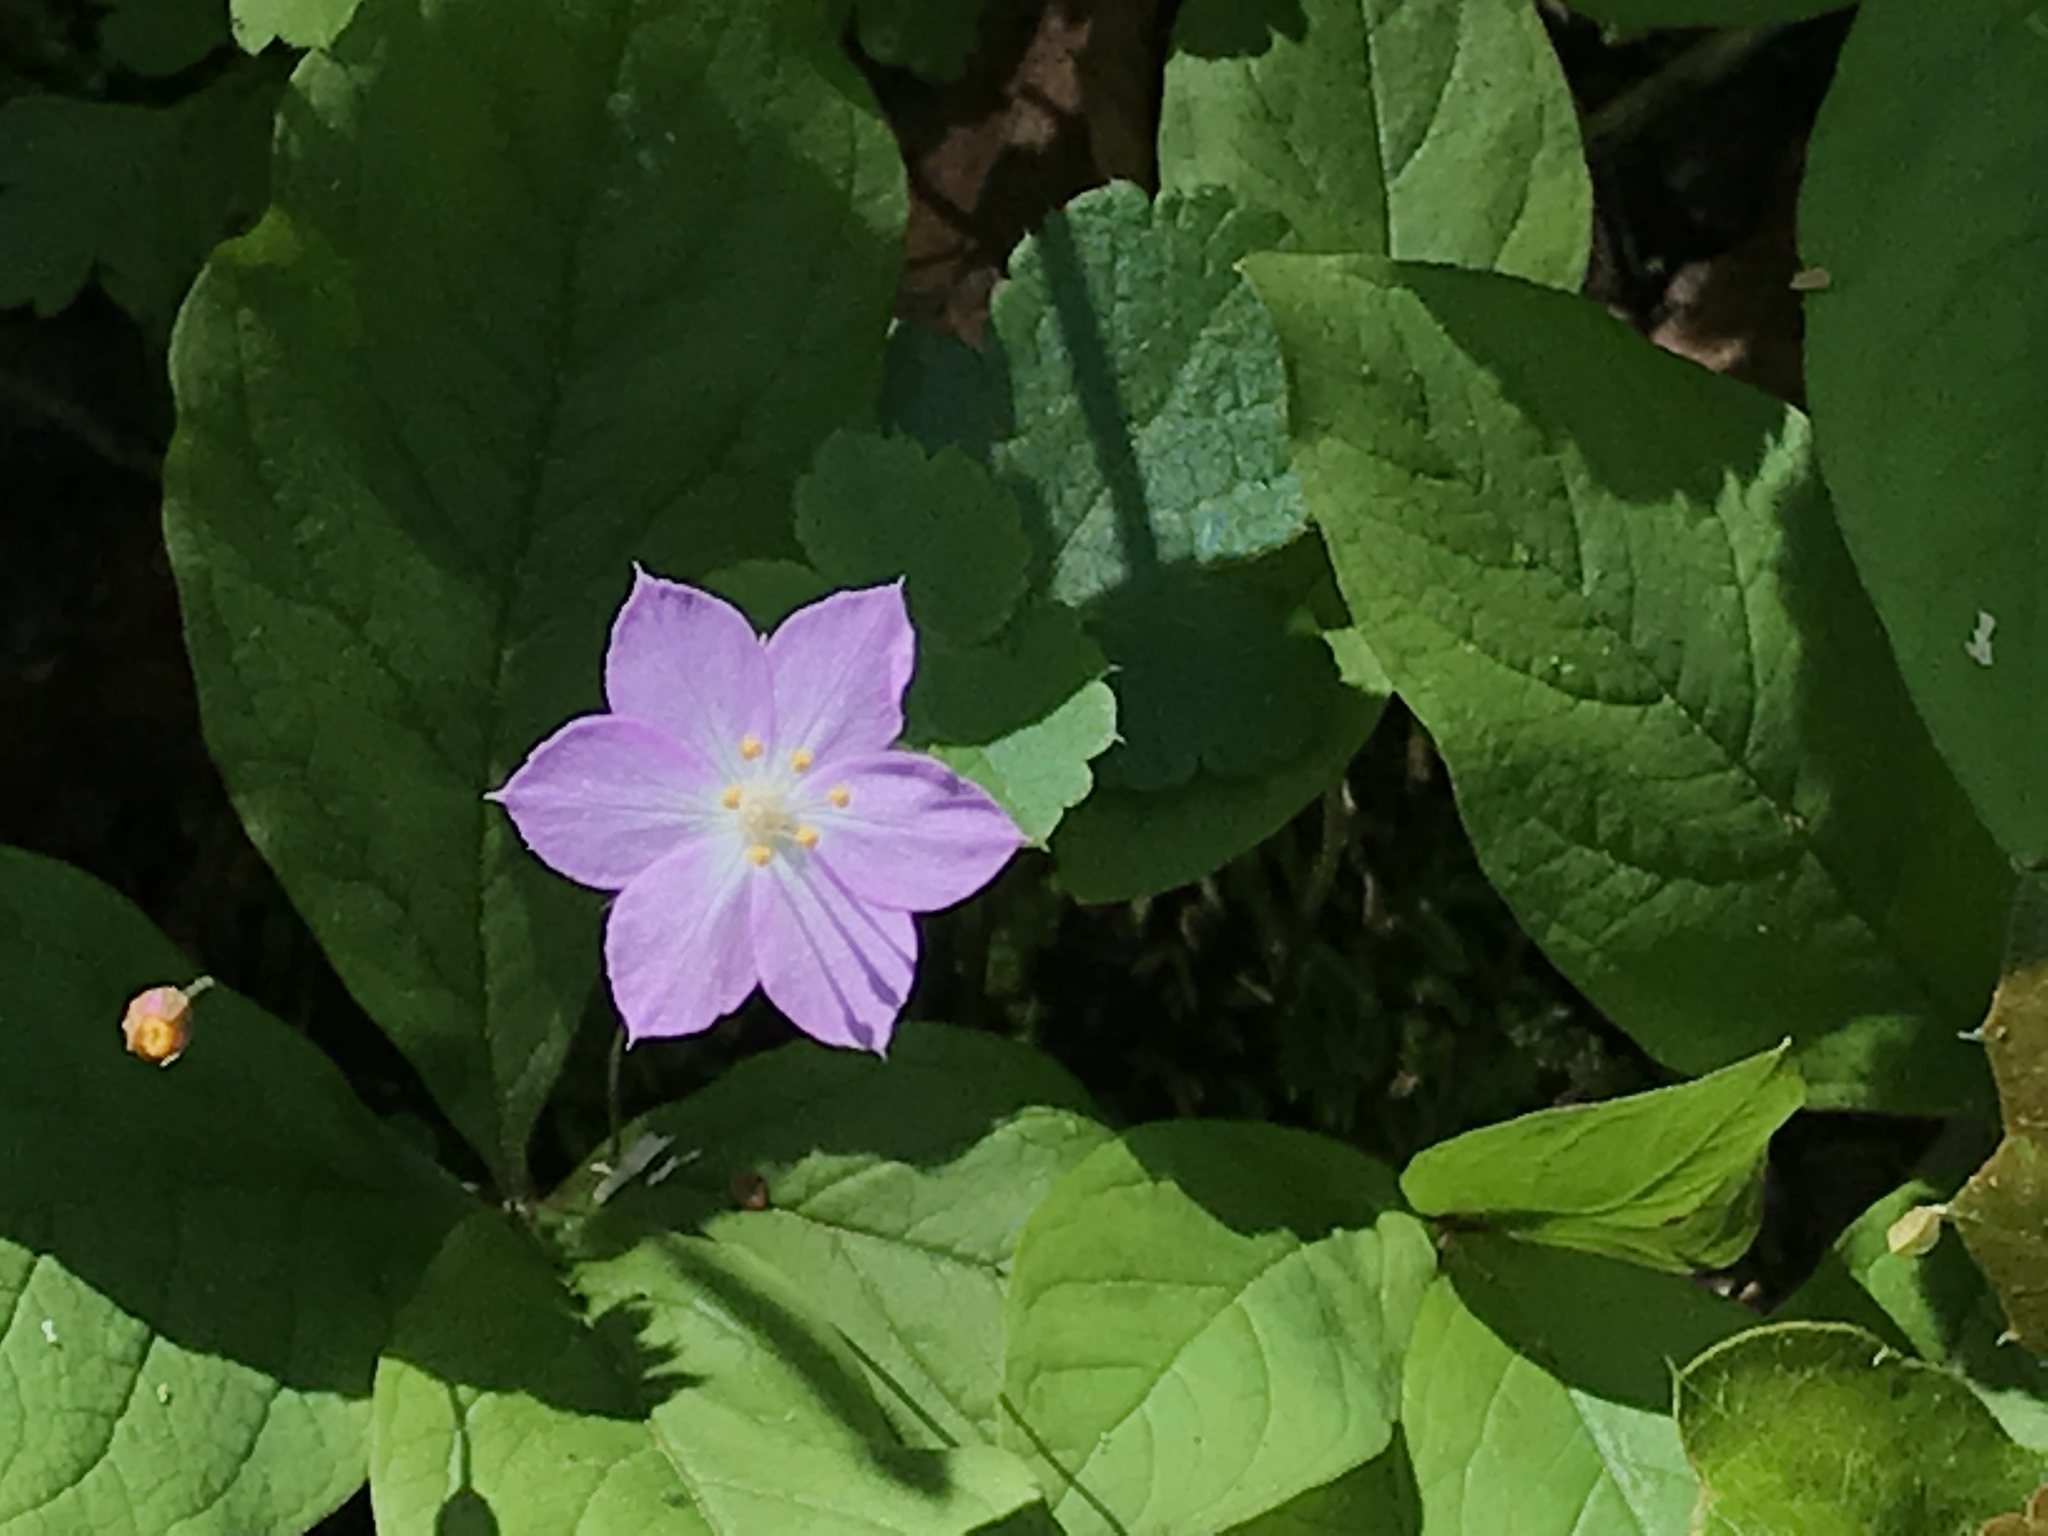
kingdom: Plantae
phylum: Tracheophyta
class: Magnoliopsida
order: Ericales
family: Primulaceae
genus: Lysimachia
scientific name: Lysimachia latifolia
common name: Pacific starflower
